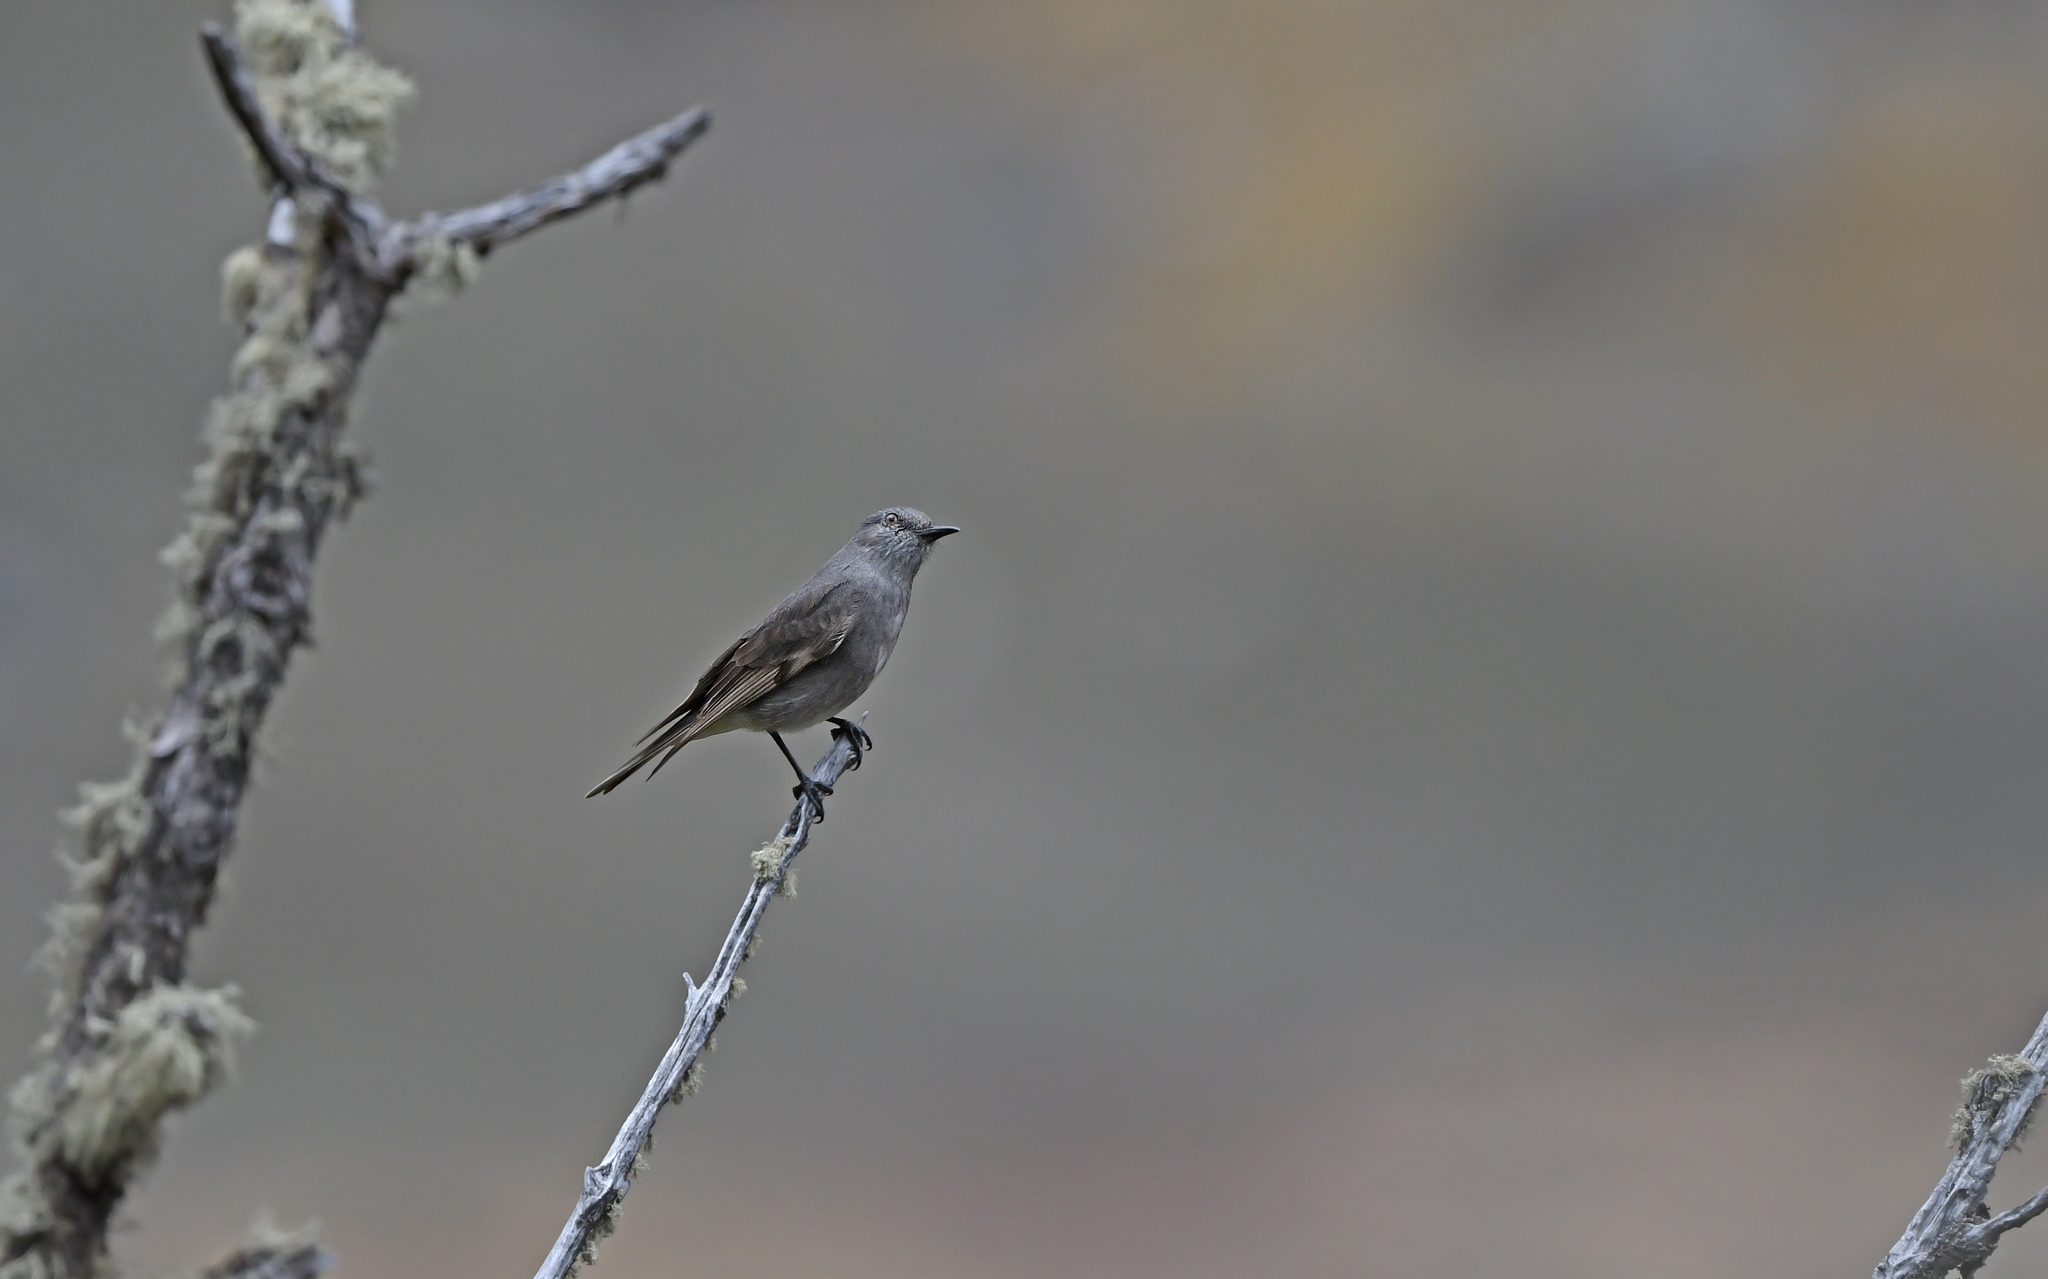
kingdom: Animalia
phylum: Chordata
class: Aves
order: Passeriformes
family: Tyrannidae
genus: Polioxolmis
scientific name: Polioxolmis rufipennis
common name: Rufous-webbed bush-tyrant
